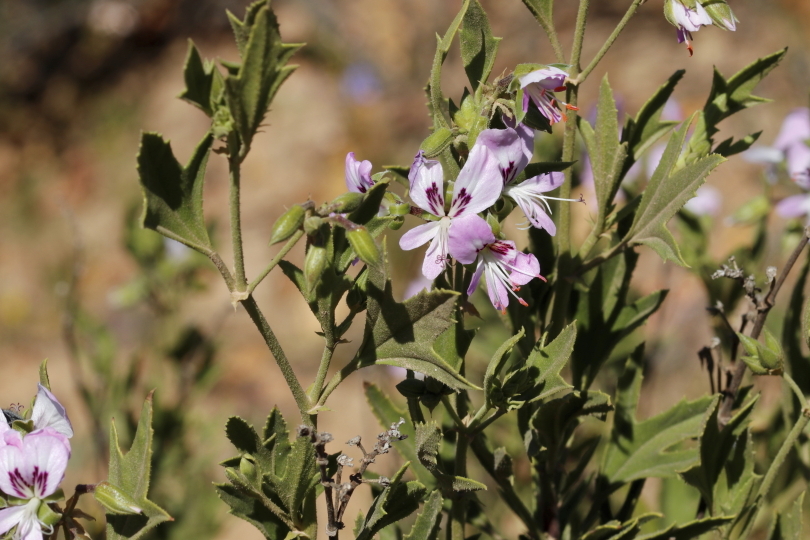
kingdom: Plantae
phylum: Tracheophyta
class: Magnoliopsida
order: Geraniales
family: Geraniaceae
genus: Pelargonium
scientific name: Pelargonium scabrum
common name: Apricot geranium
